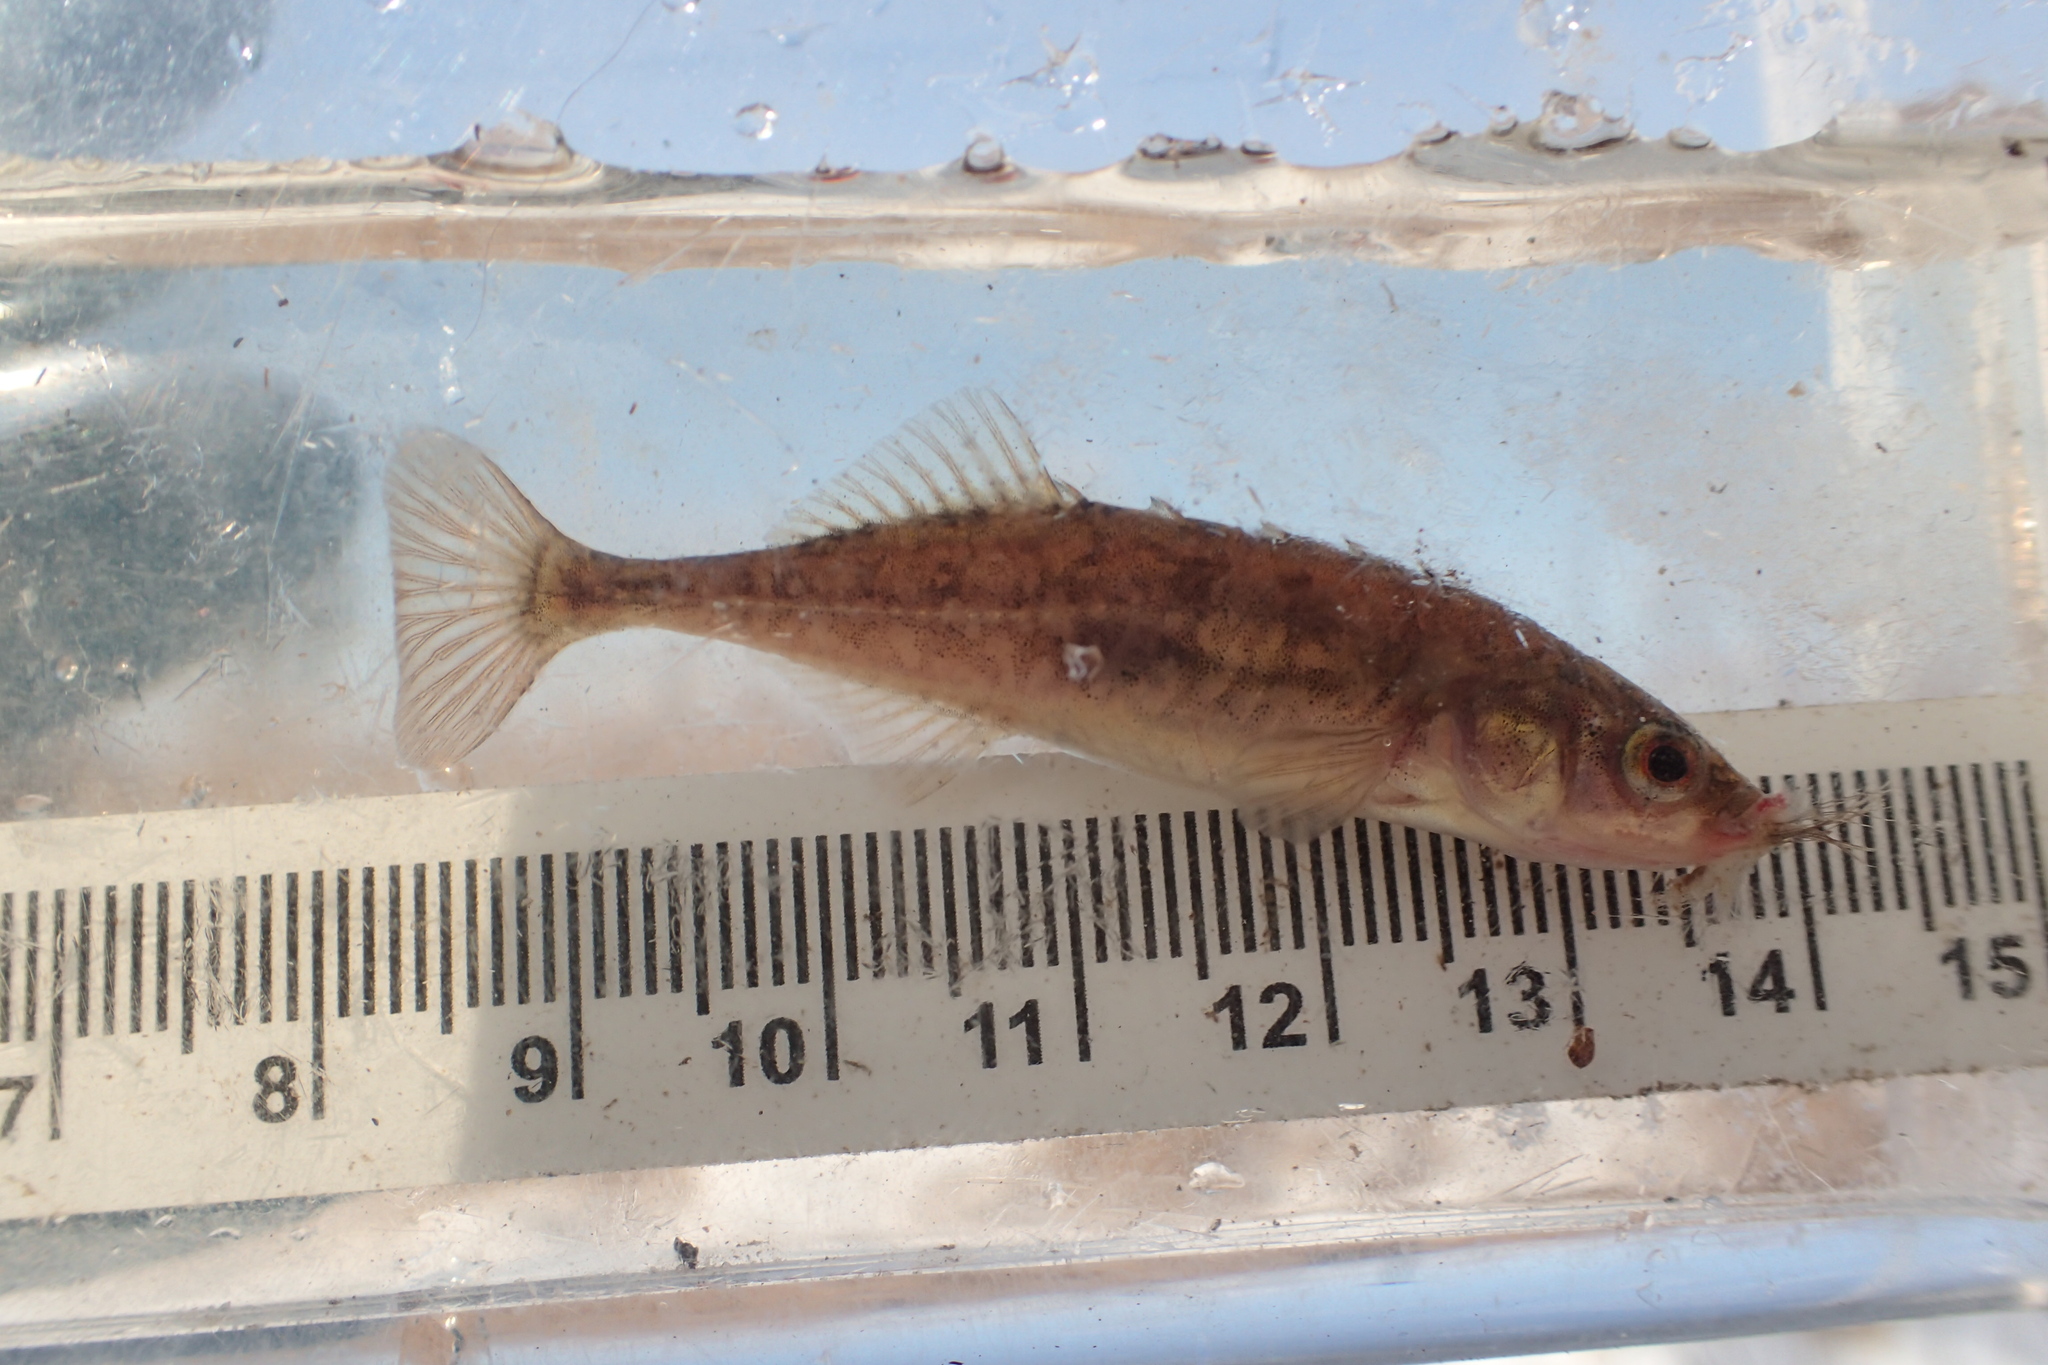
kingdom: Animalia
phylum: Chordata
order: Gasterosteiformes
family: Gasterosteidae
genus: Culaea
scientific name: Culaea inconstans
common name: Brook stickleback
